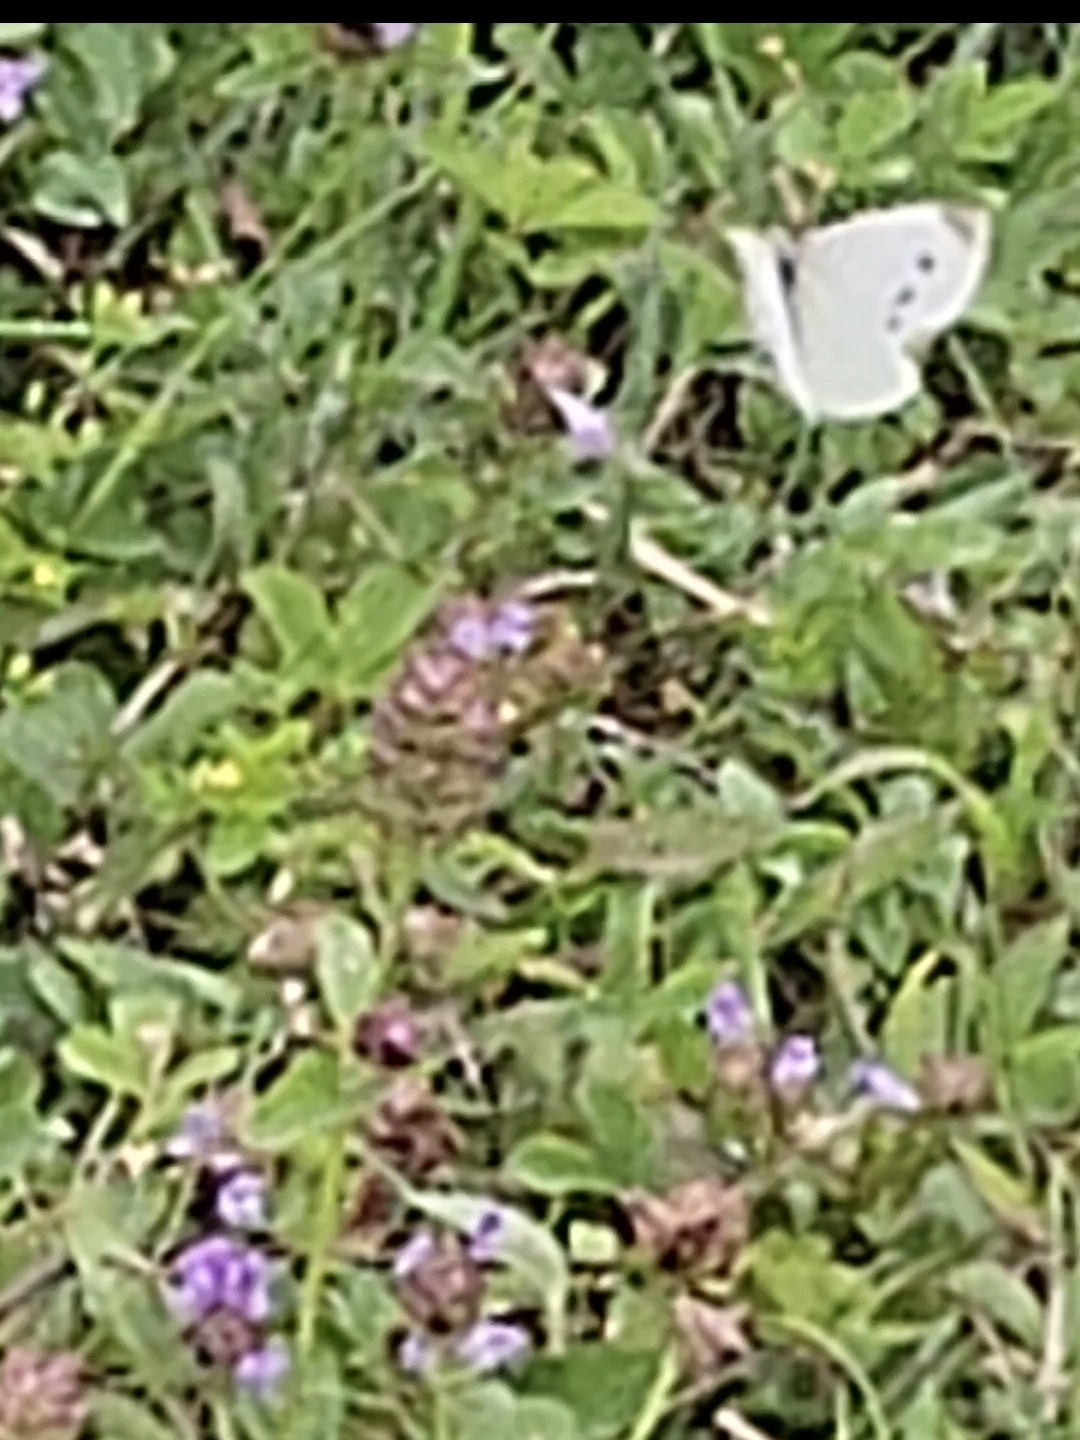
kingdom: Animalia
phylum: Arthropoda
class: Insecta
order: Lepidoptera
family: Pieridae
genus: Pieris
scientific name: Pieris rapae
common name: Small white
